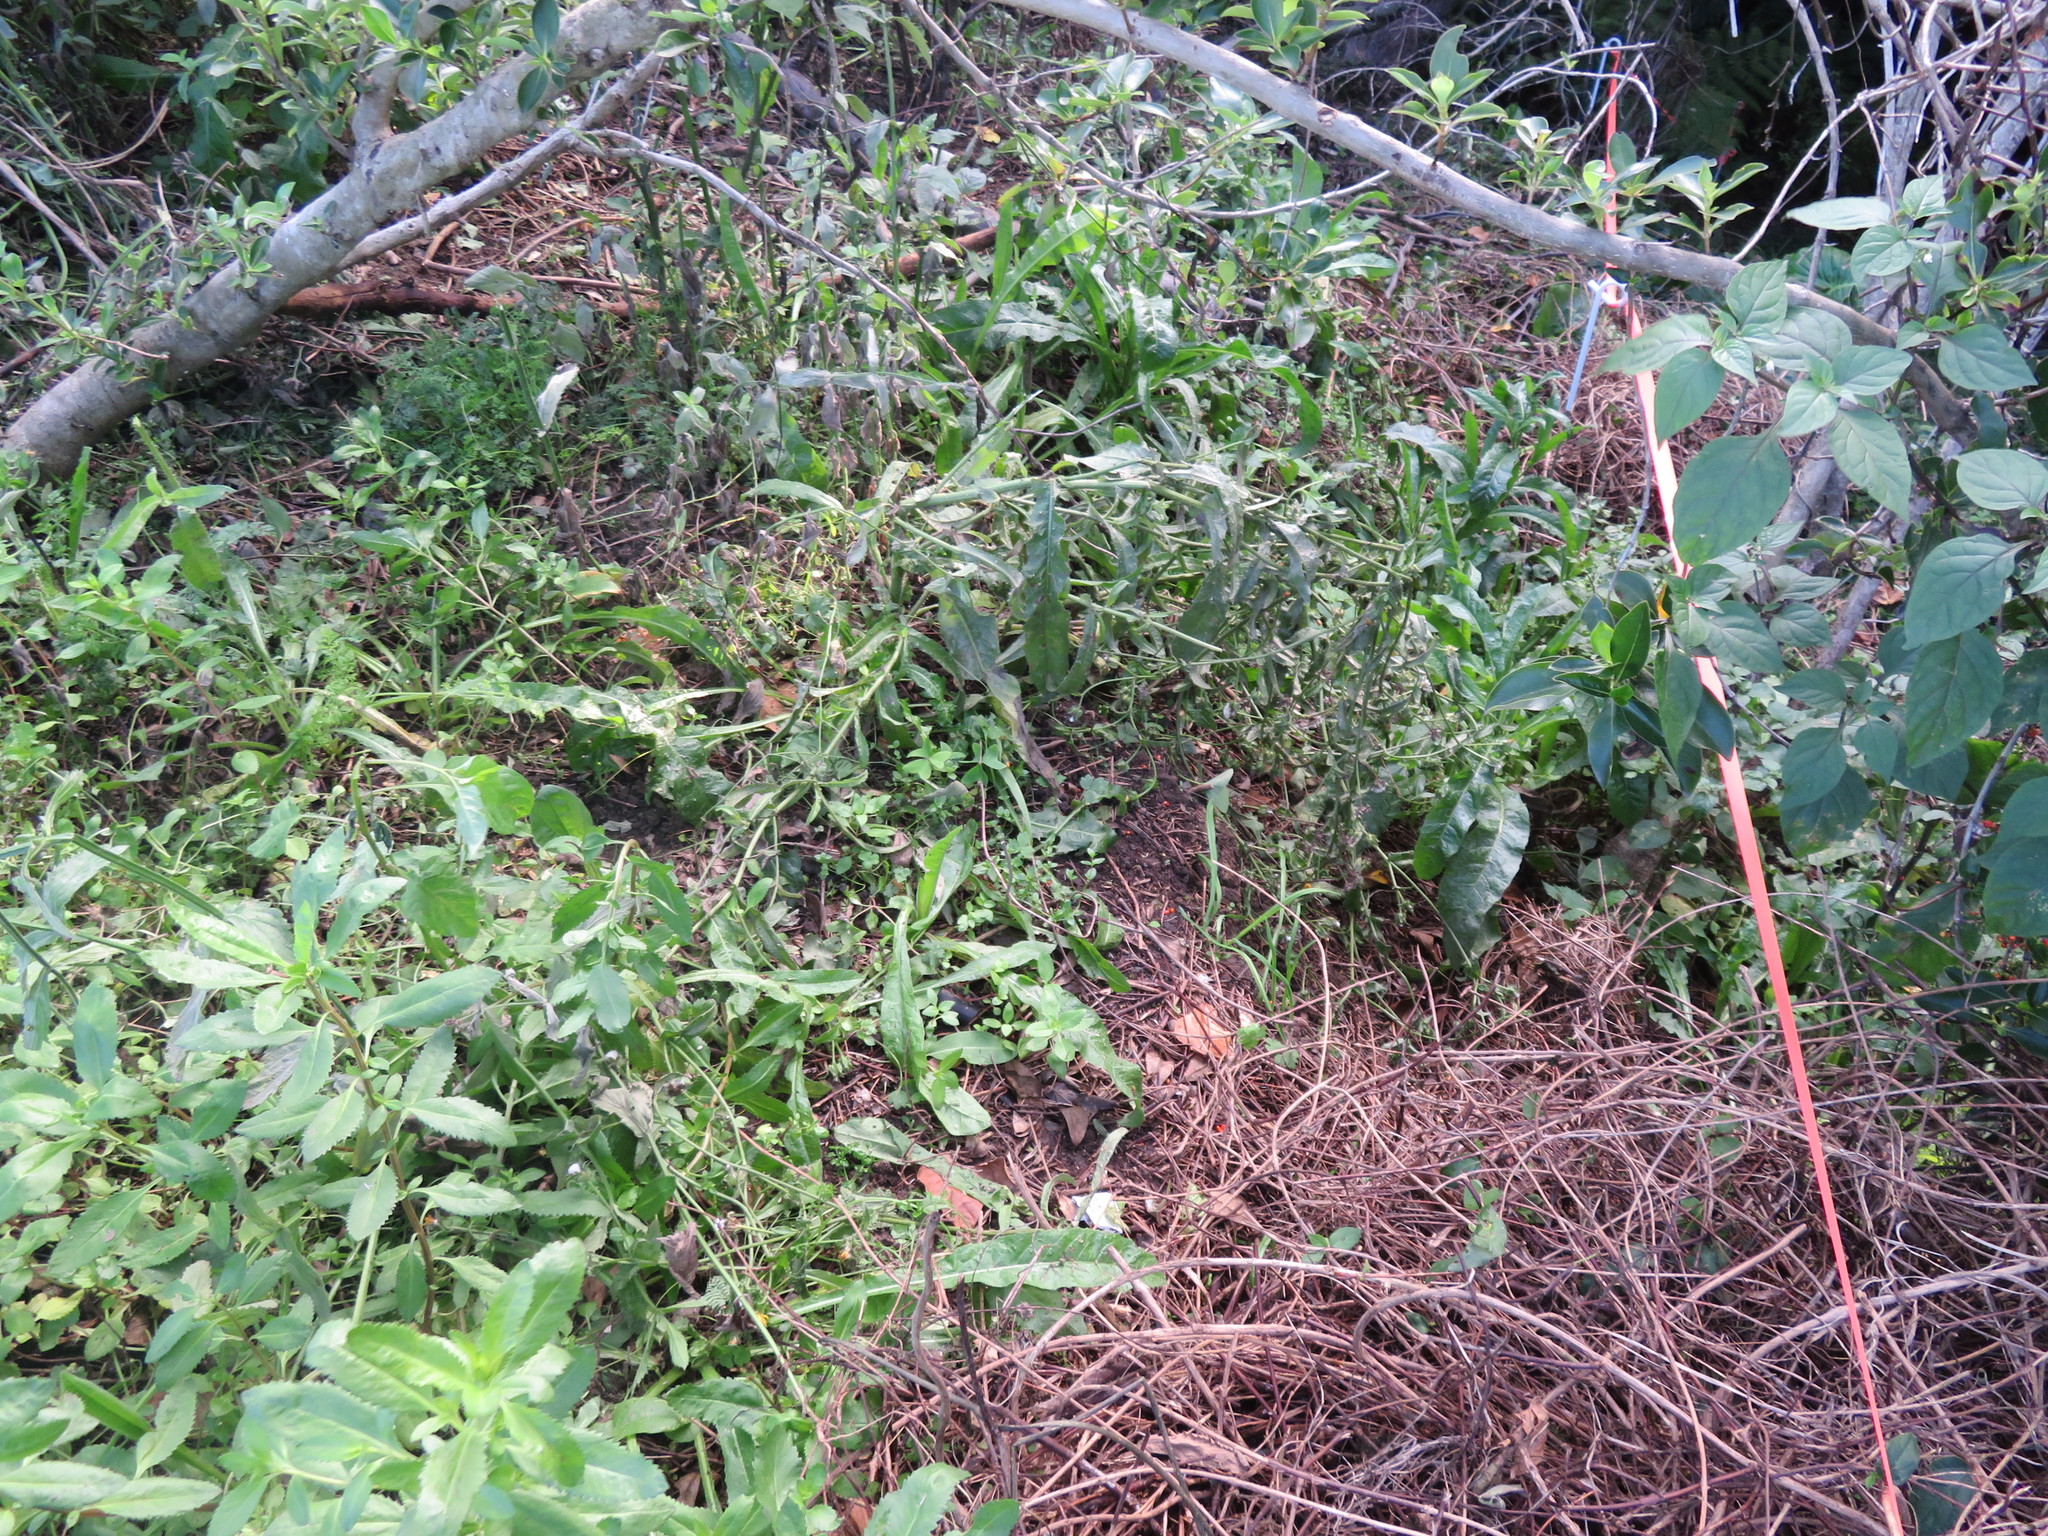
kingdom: Plantae
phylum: Tracheophyta
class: Magnoliopsida
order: Saxifragales
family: Haloragaceae
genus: Haloragis
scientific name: Haloragis erecta
